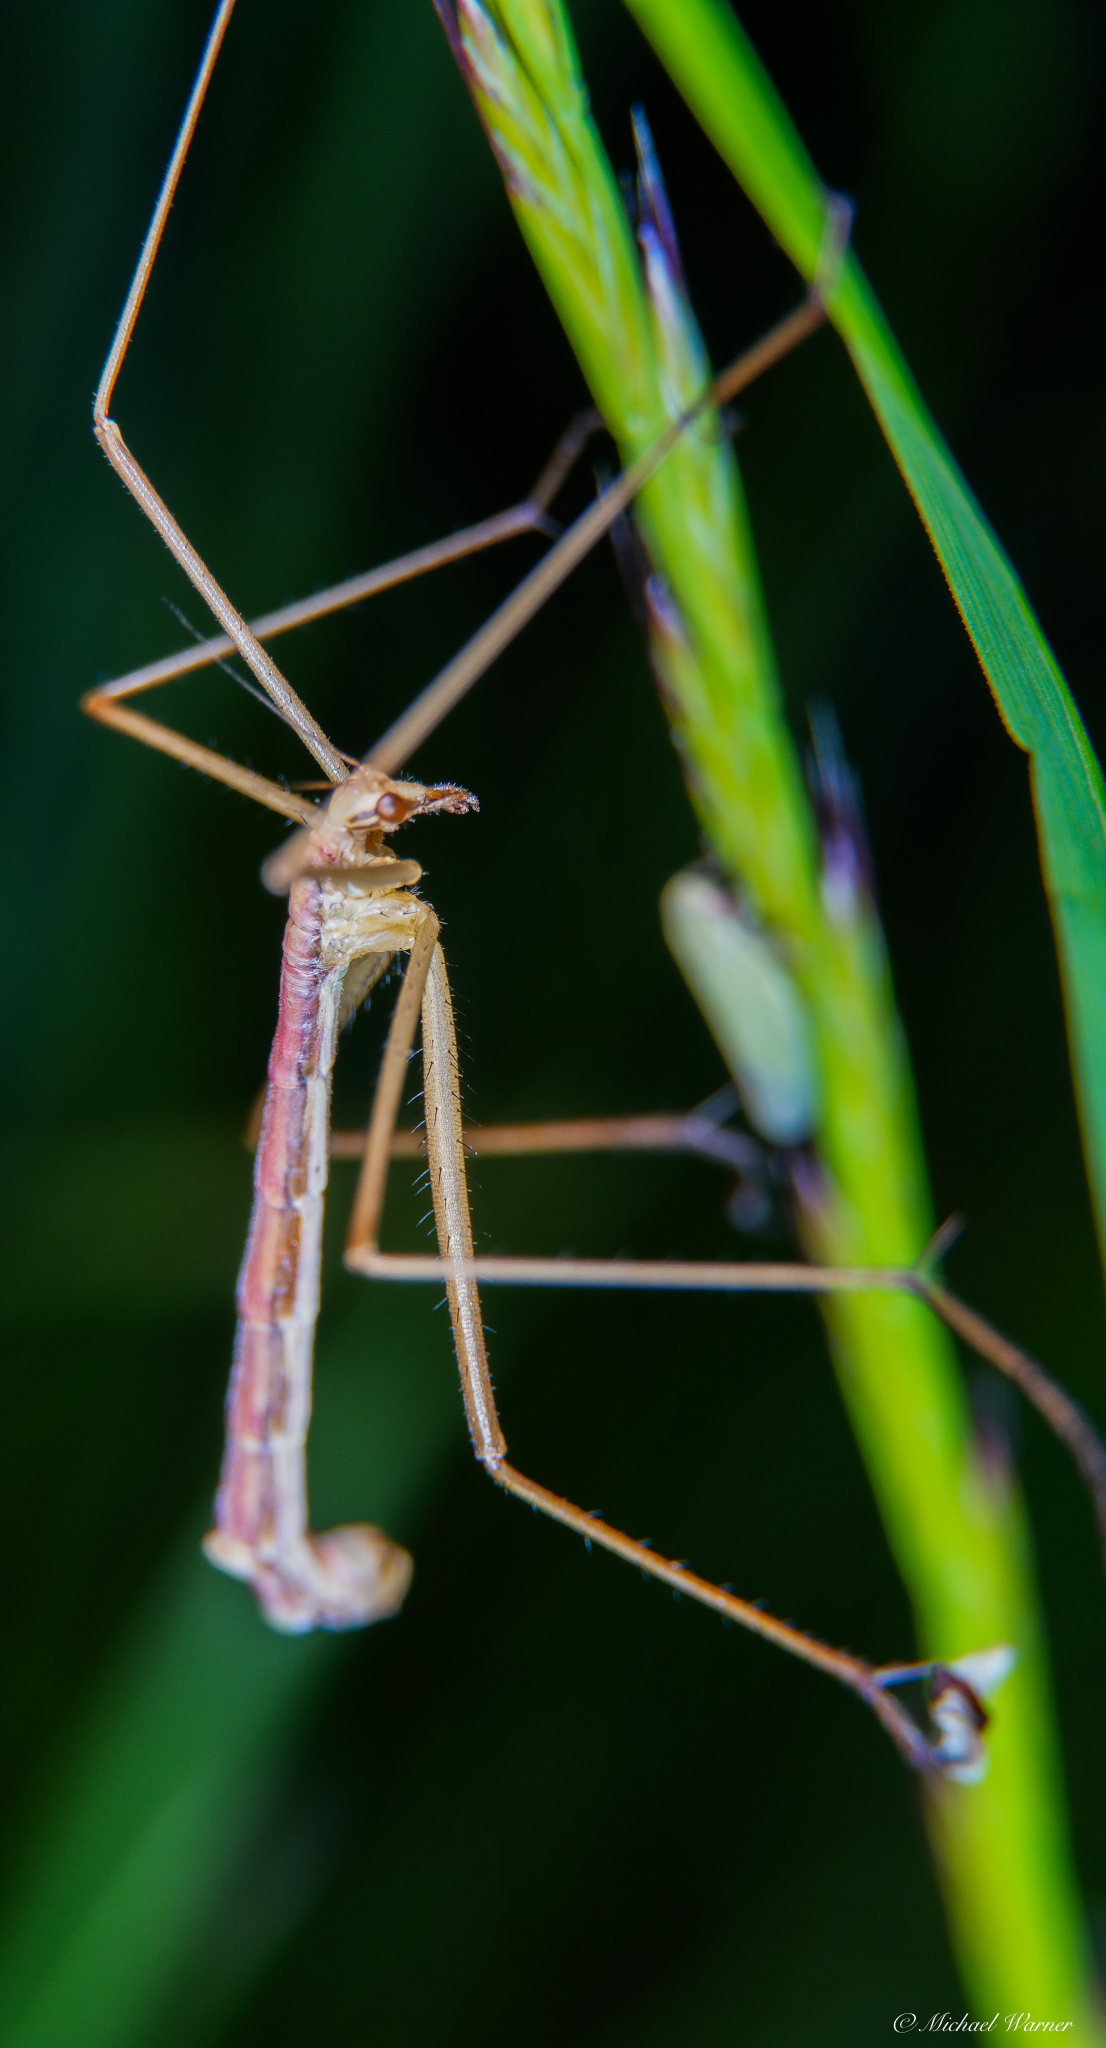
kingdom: Animalia
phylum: Arthropoda
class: Insecta
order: Mecoptera
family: Bittacidae
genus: Apterobittacus
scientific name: Apterobittacus apterus
